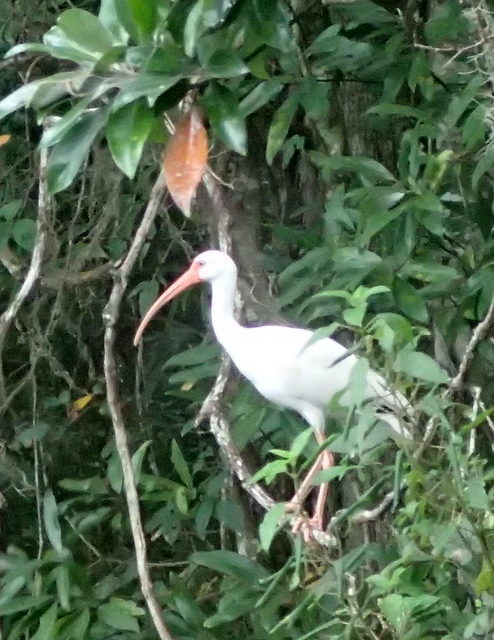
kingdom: Animalia
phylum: Chordata
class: Aves
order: Pelecaniformes
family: Threskiornithidae
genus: Eudocimus
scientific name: Eudocimus albus
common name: White ibis
